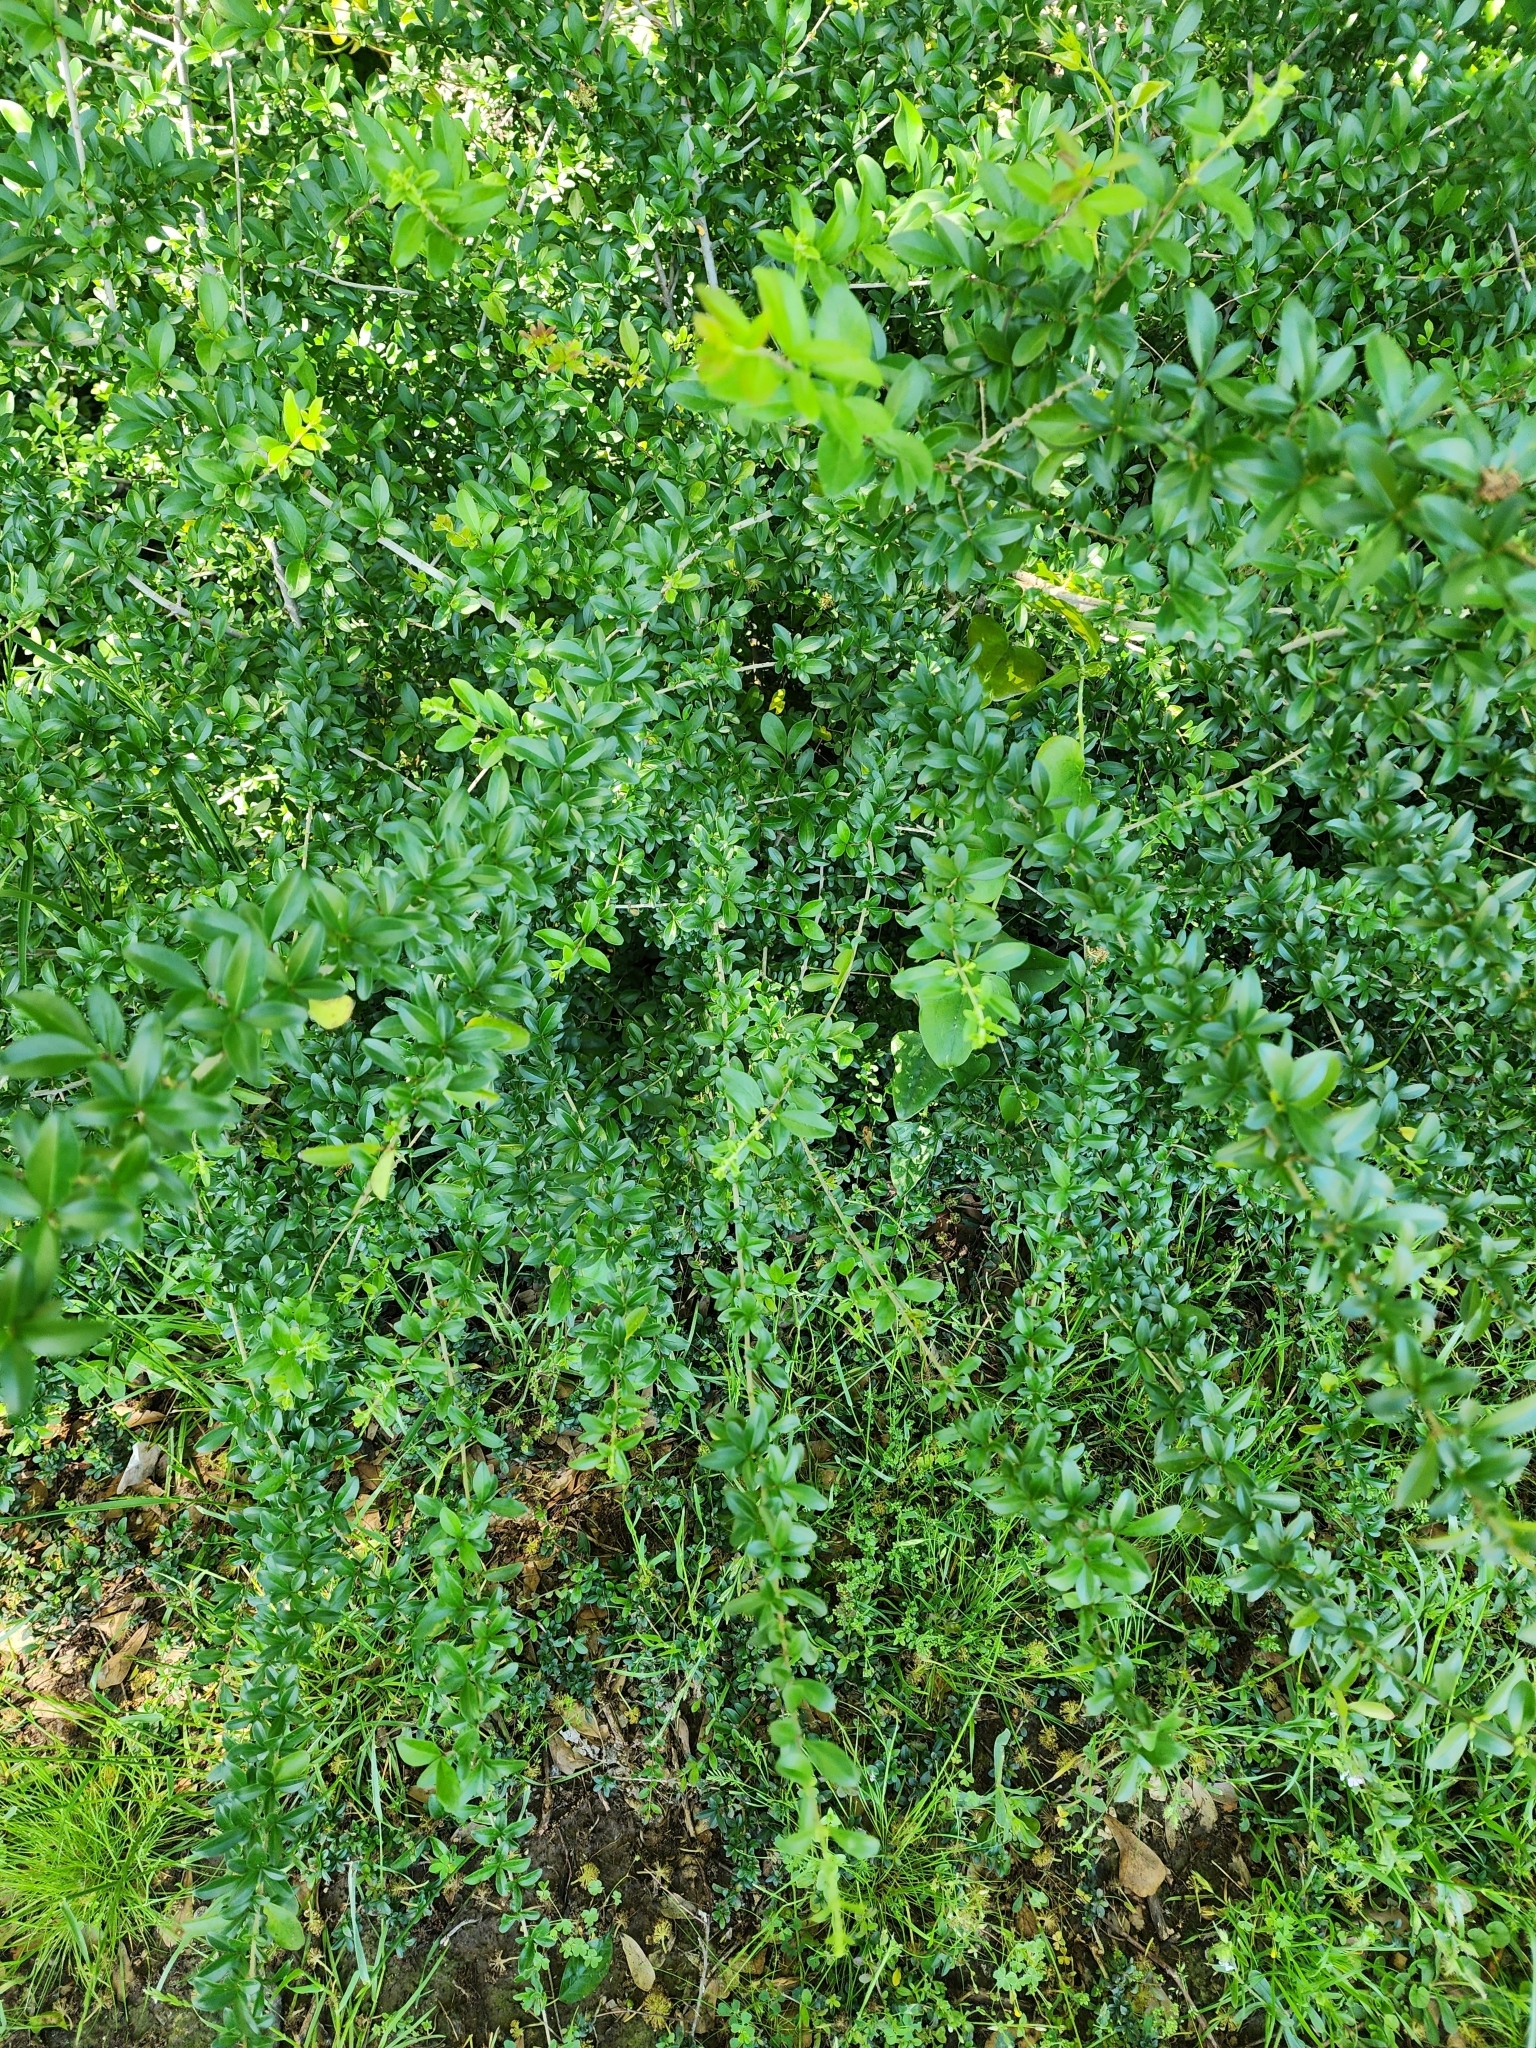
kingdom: Plantae
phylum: Tracheophyta
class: Magnoliopsida
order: Lamiales
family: Oleaceae
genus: Ligustrum
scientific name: Ligustrum quihoui
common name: Waxyleaf privet
